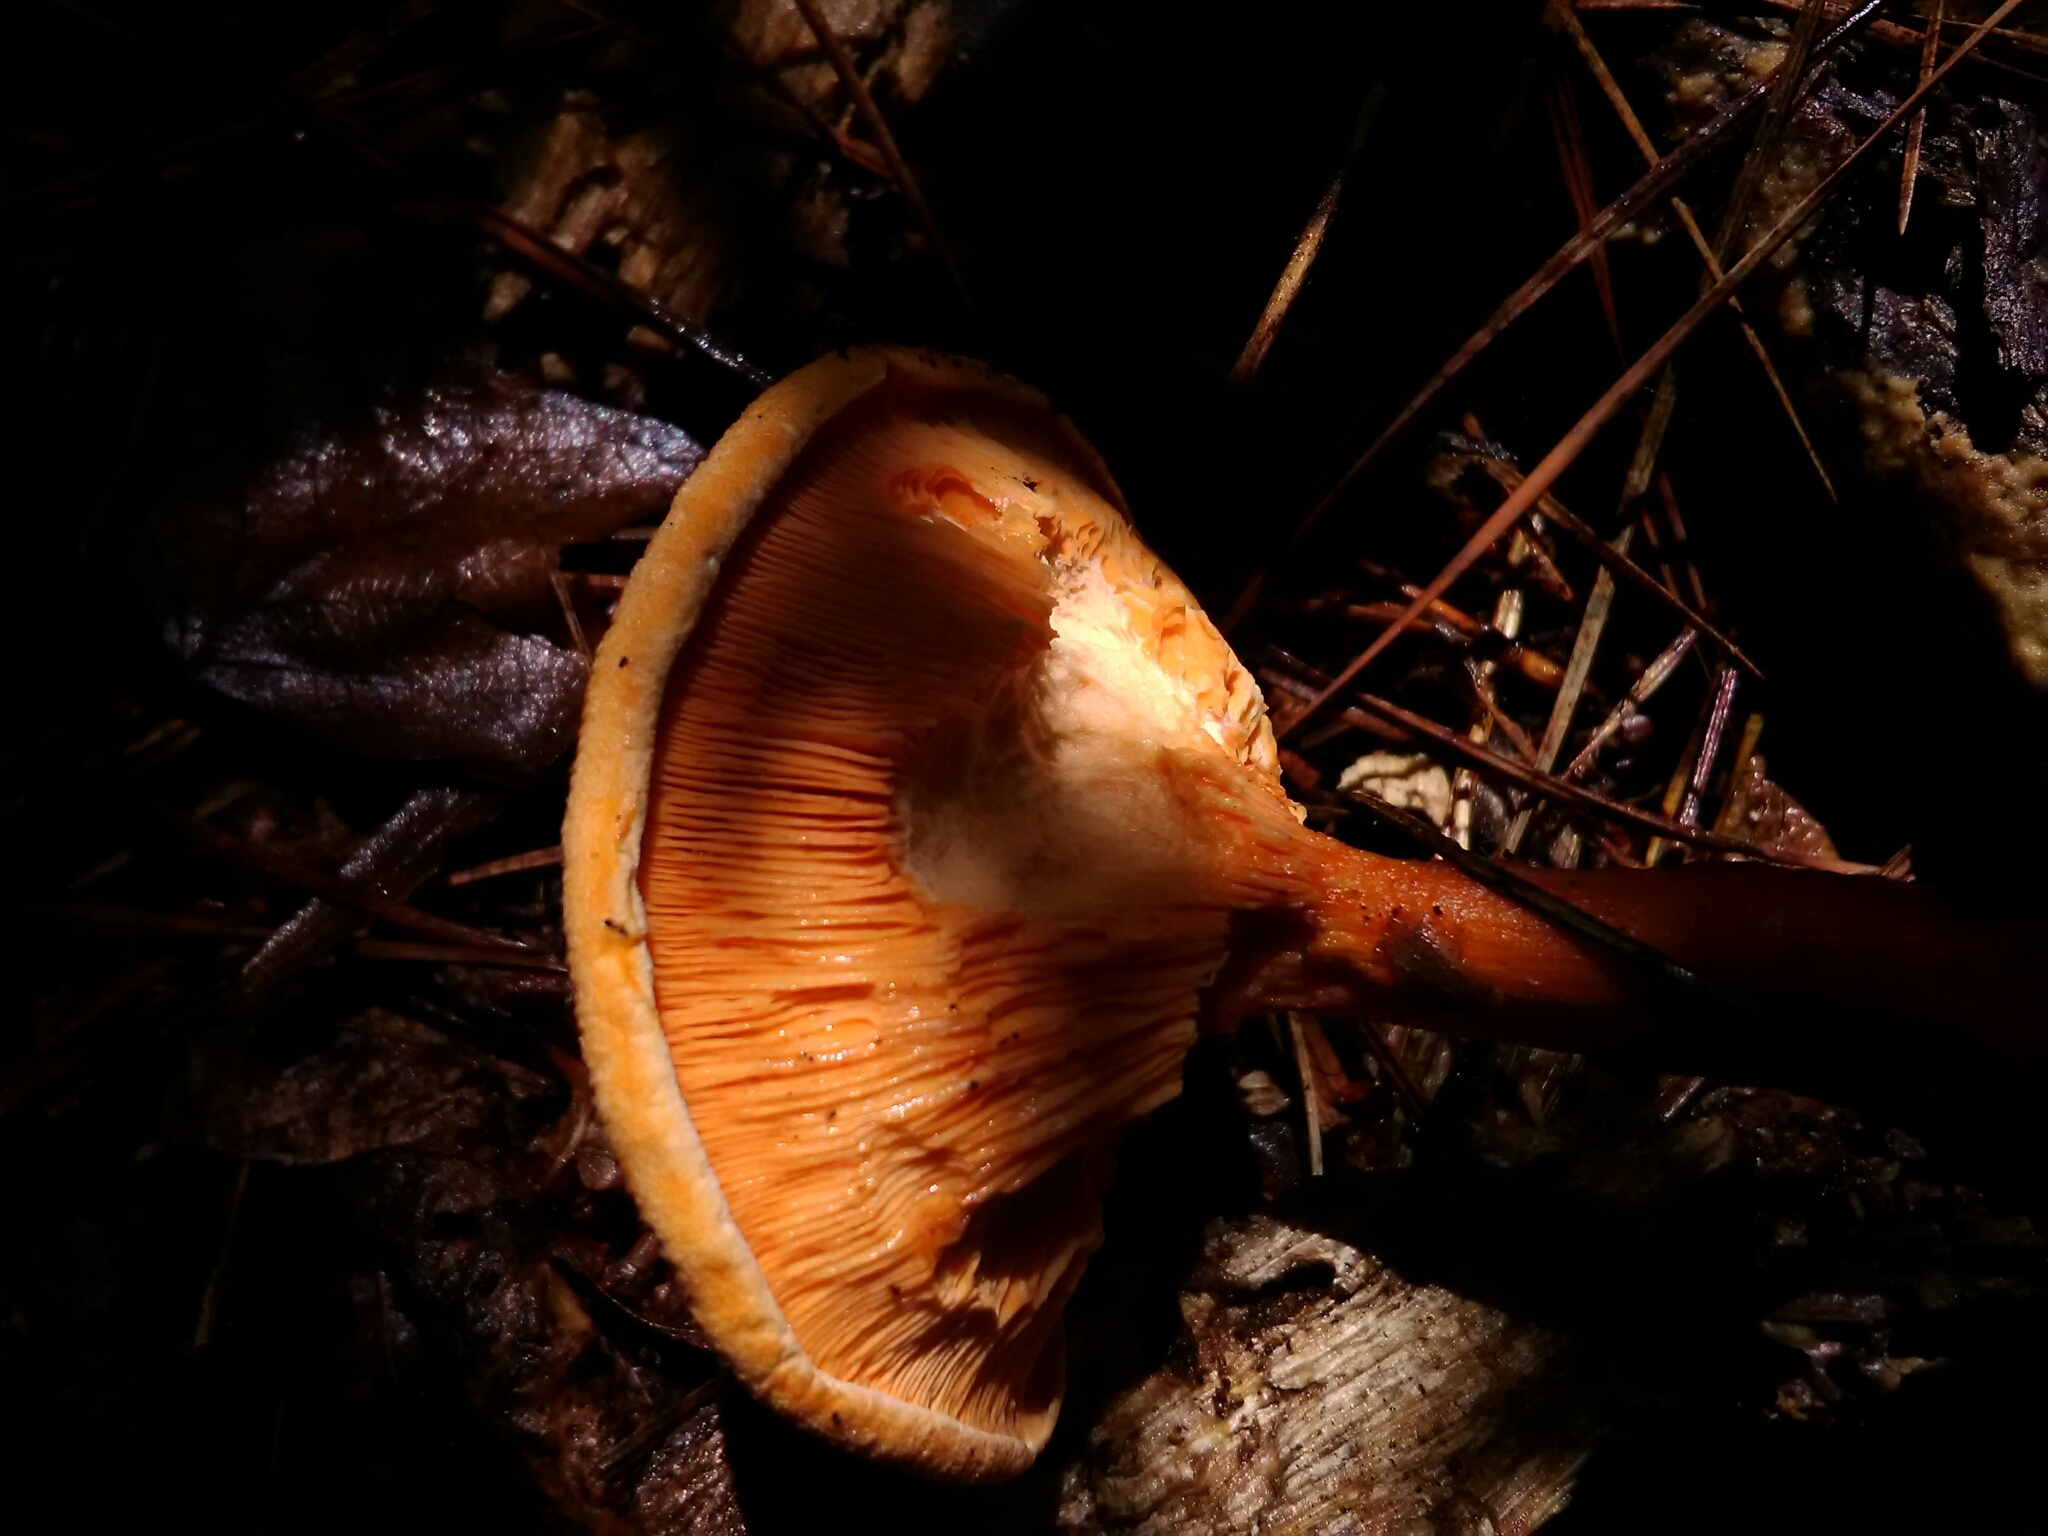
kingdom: Fungi
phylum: Basidiomycota
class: Agaricomycetes
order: Boletales
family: Hygrophoropsidaceae
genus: Hygrophoropsis
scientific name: Hygrophoropsis aurantiaca
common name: False chanterelle
